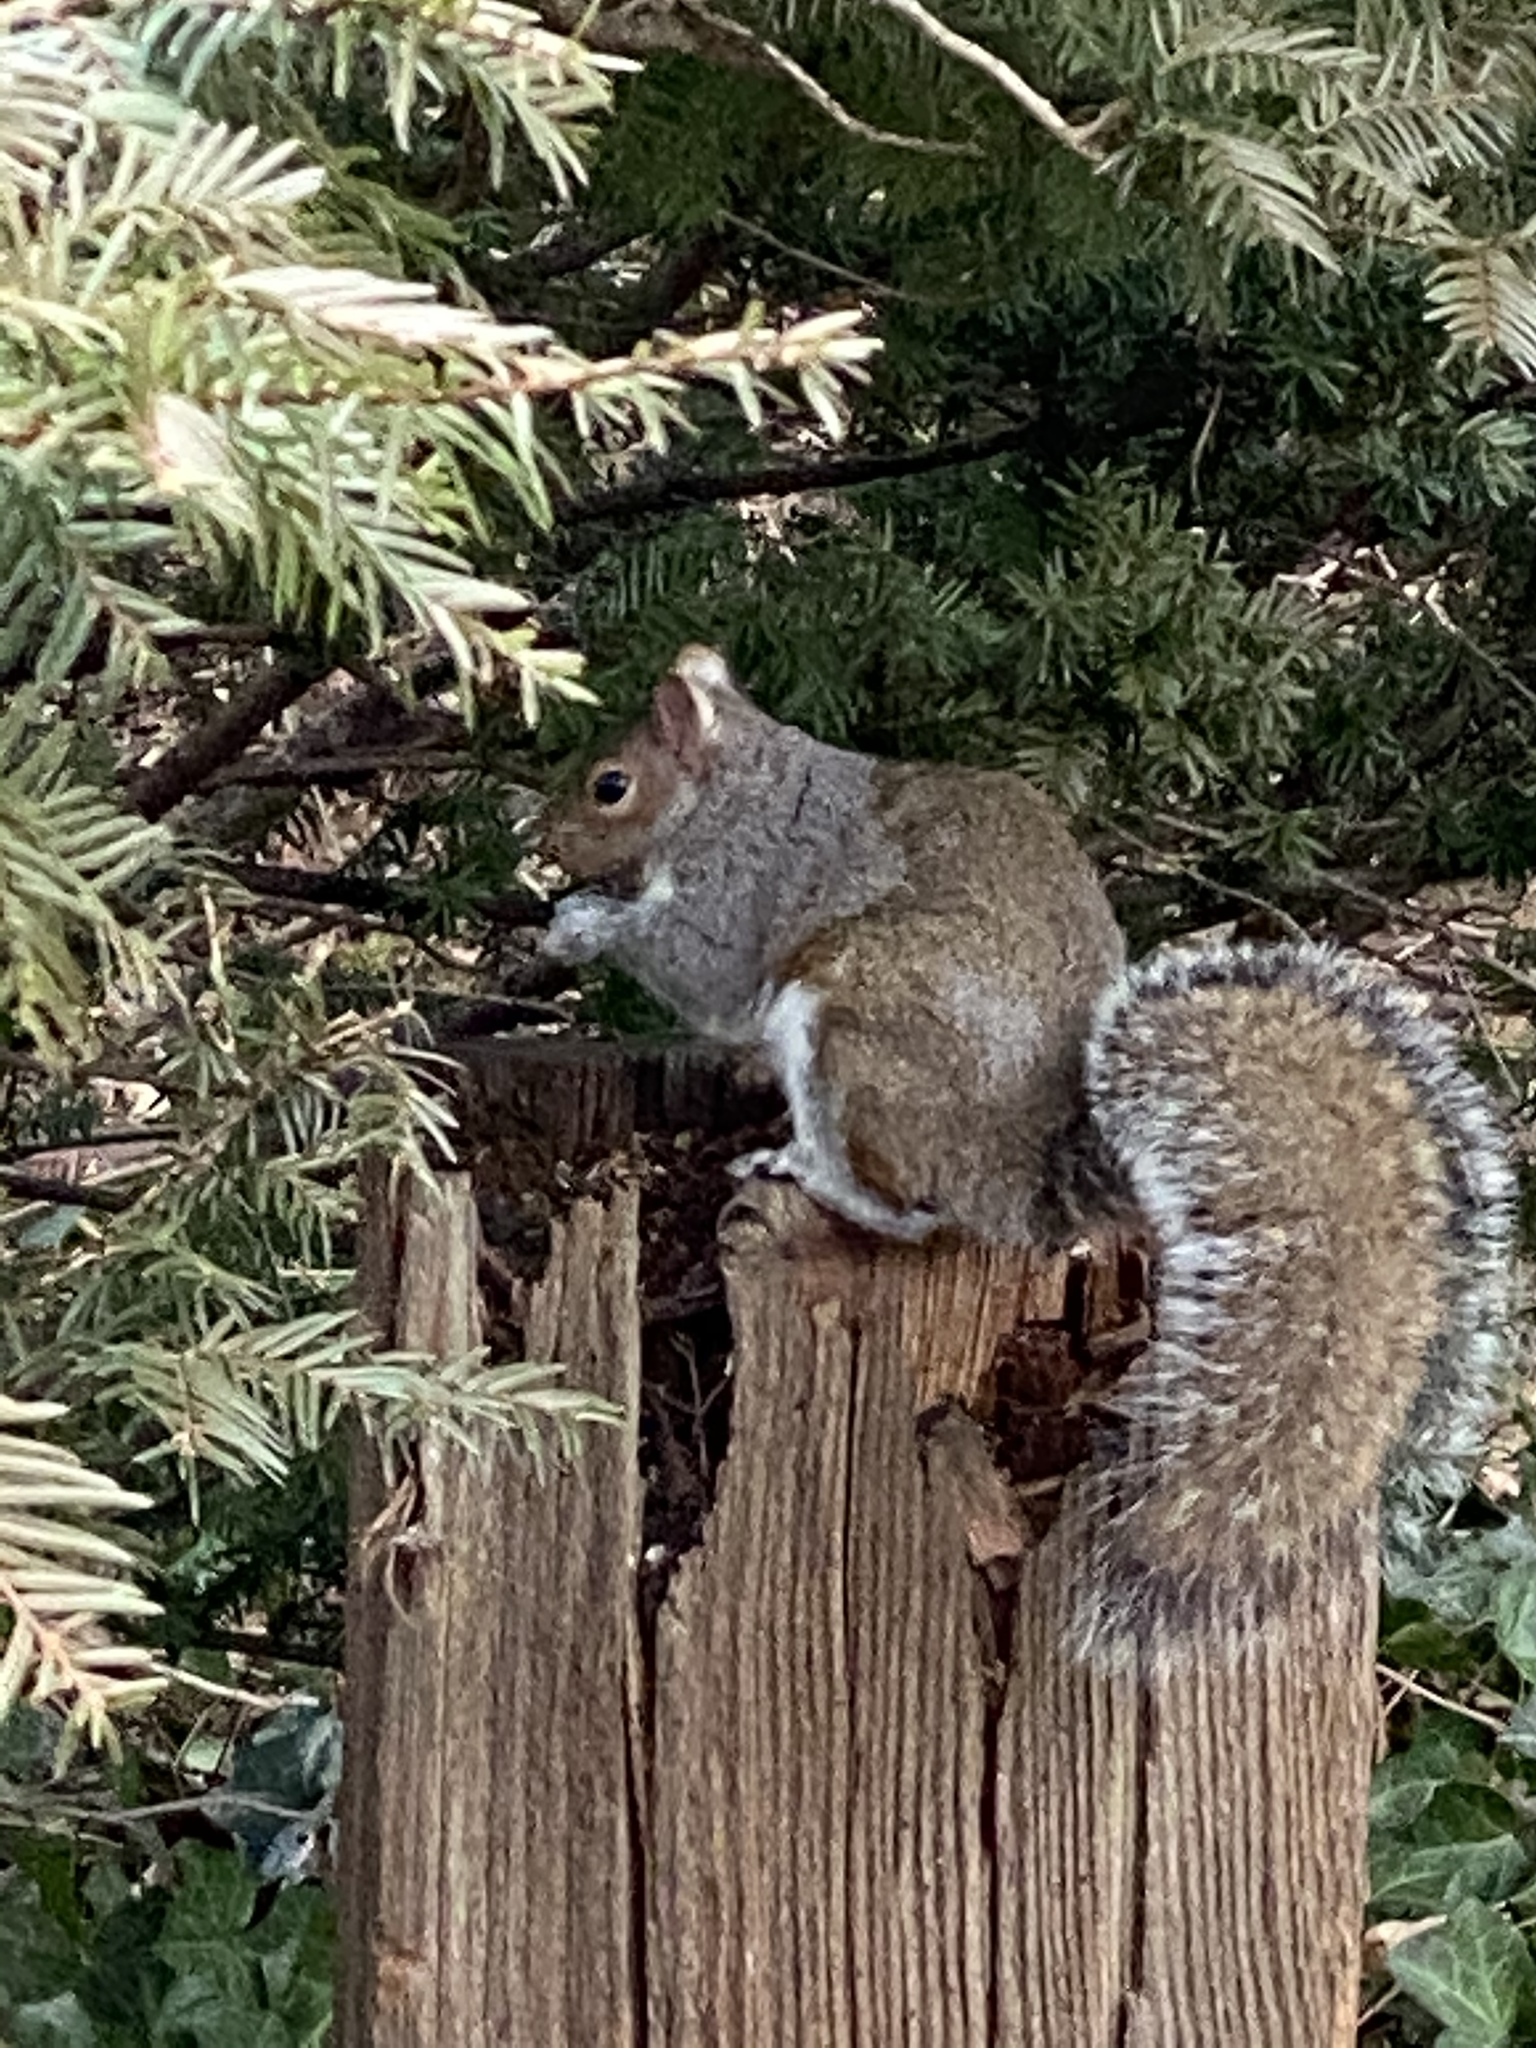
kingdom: Animalia
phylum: Chordata
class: Mammalia
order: Rodentia
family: Sciuridae
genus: Sciurus
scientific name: Sciurus carolinensis
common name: Eastern gray squirrel
